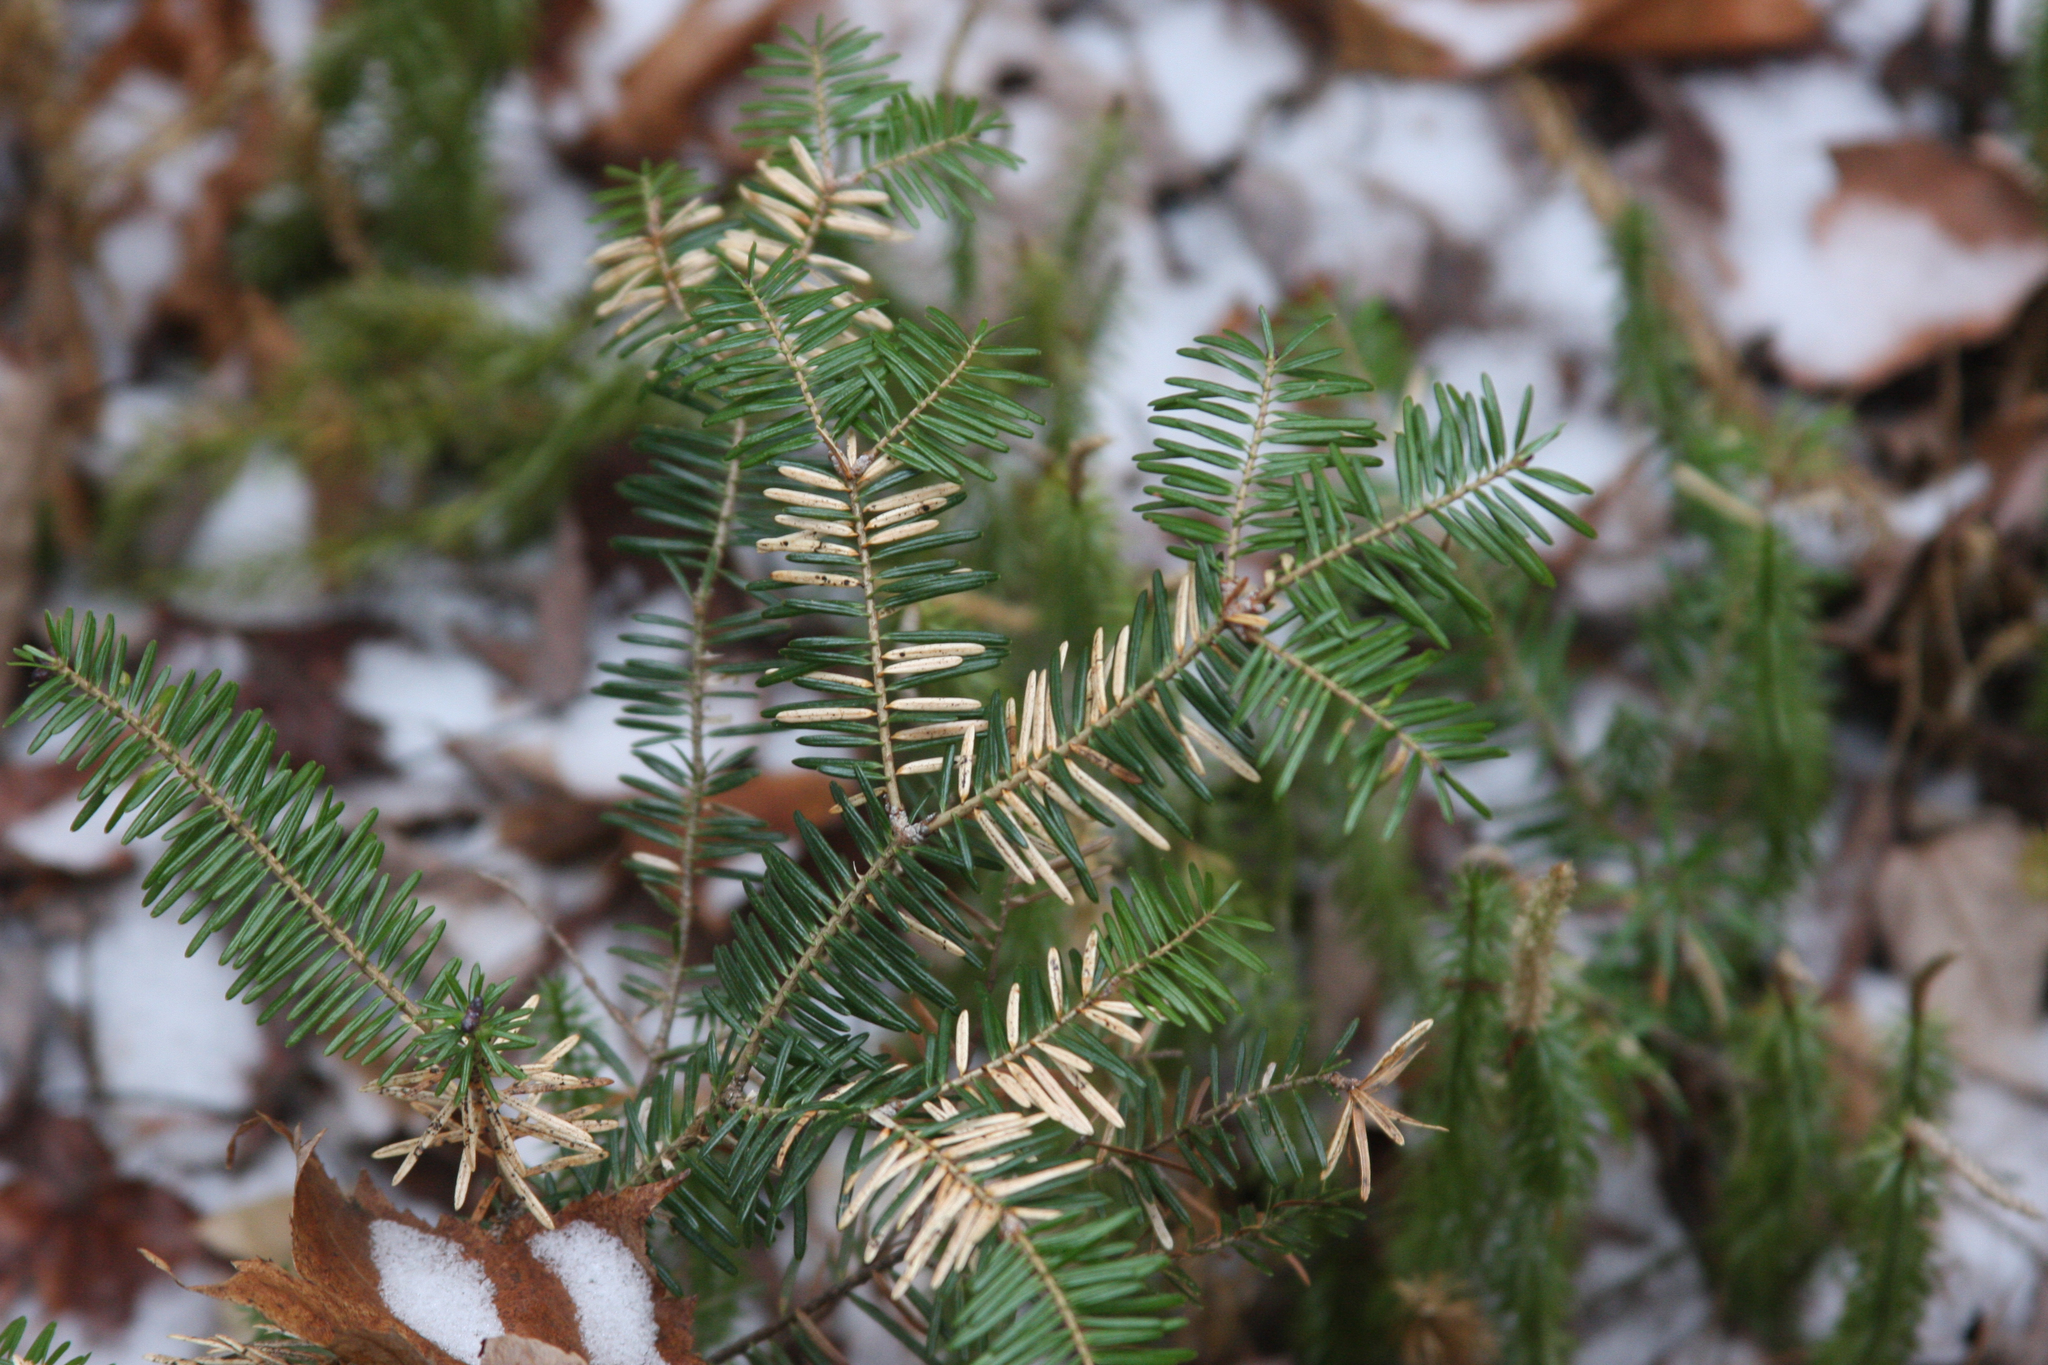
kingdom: Plantae
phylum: Tracheophyta
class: Pinopsida
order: Pinales
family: Pinaceae
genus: Abies
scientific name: Abies balsamea
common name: Balsam fir
